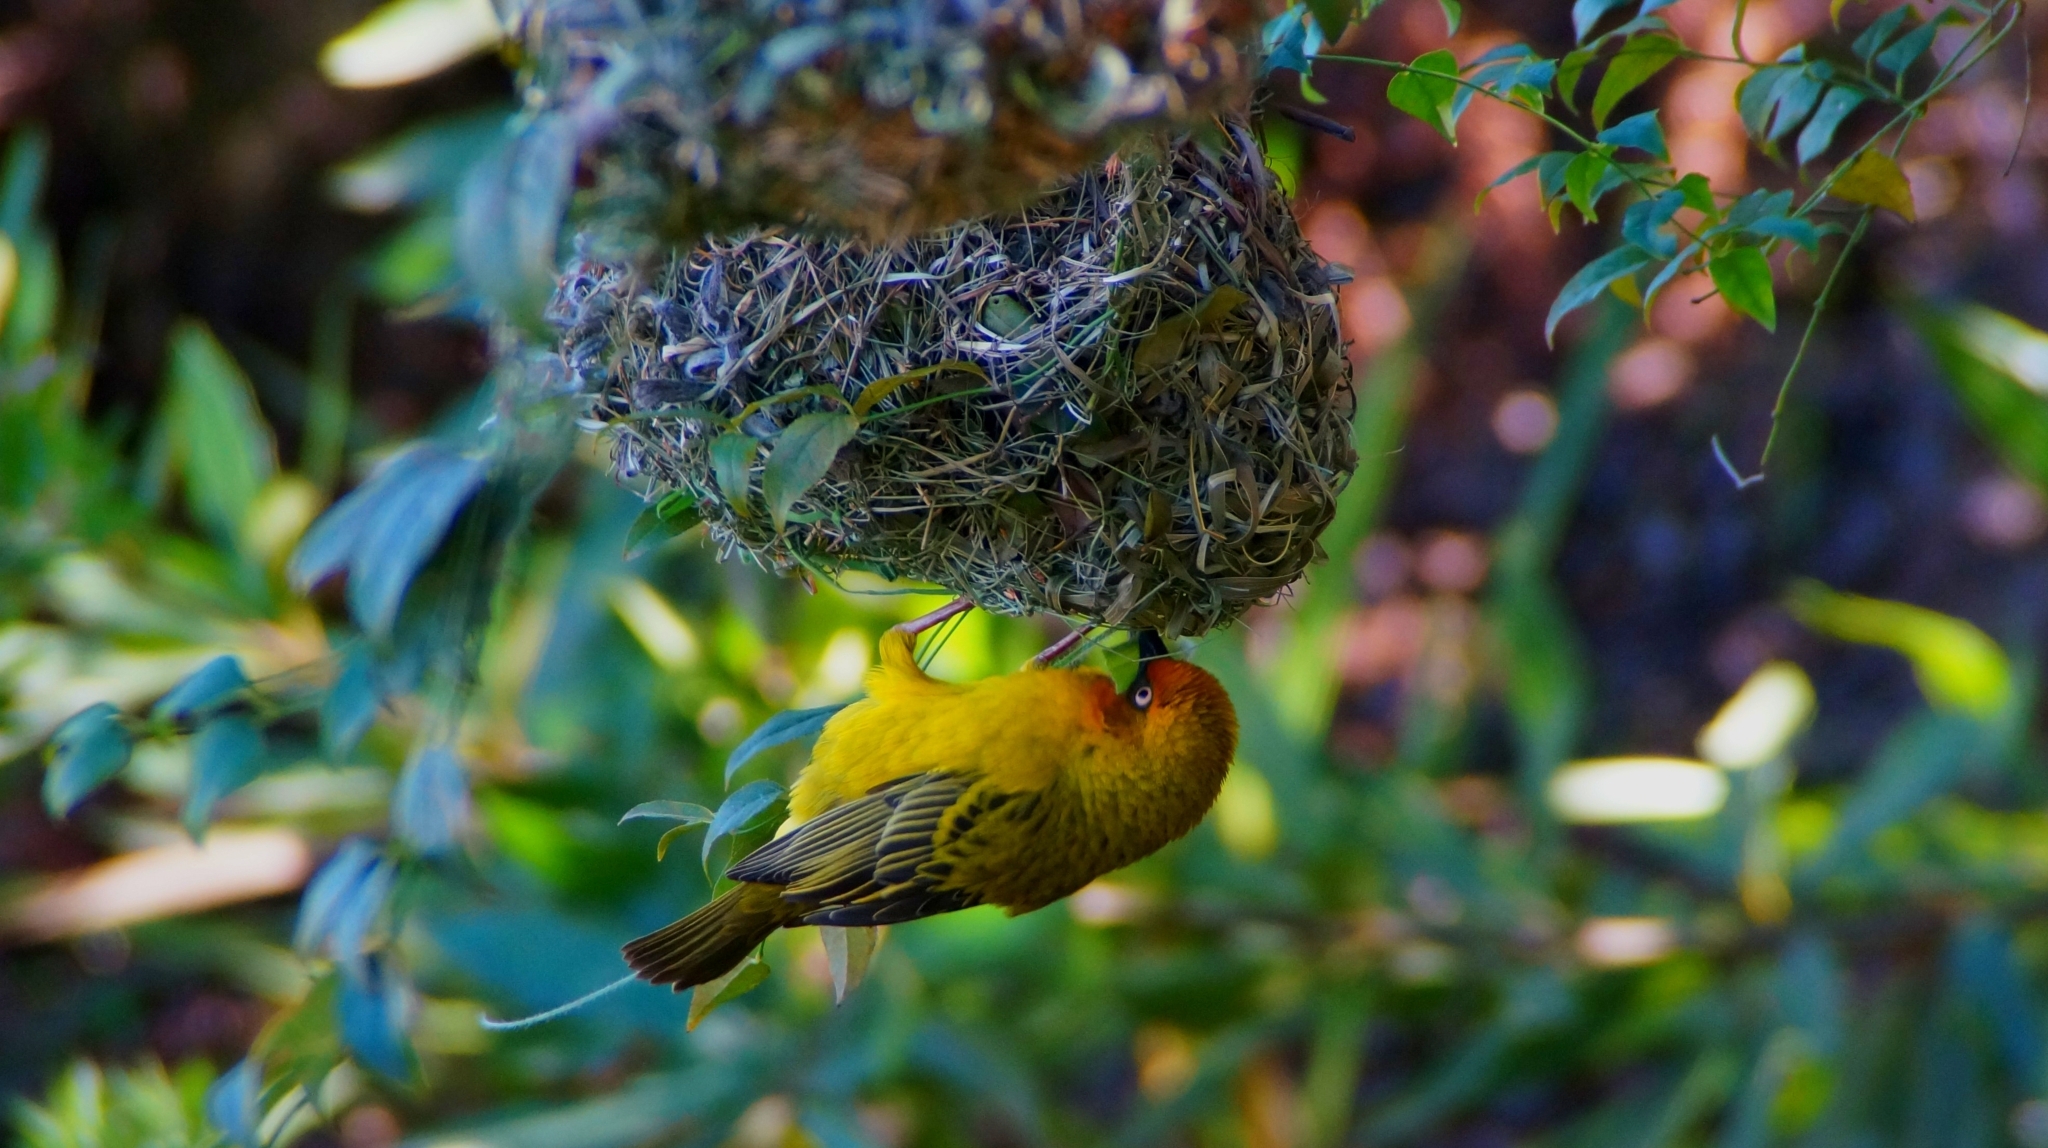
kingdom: Animalia
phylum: Chordata
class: Aves
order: Passeriformes
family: Ploceidae
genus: Ploceus
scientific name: Ploceus capensis
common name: Cape weaver
